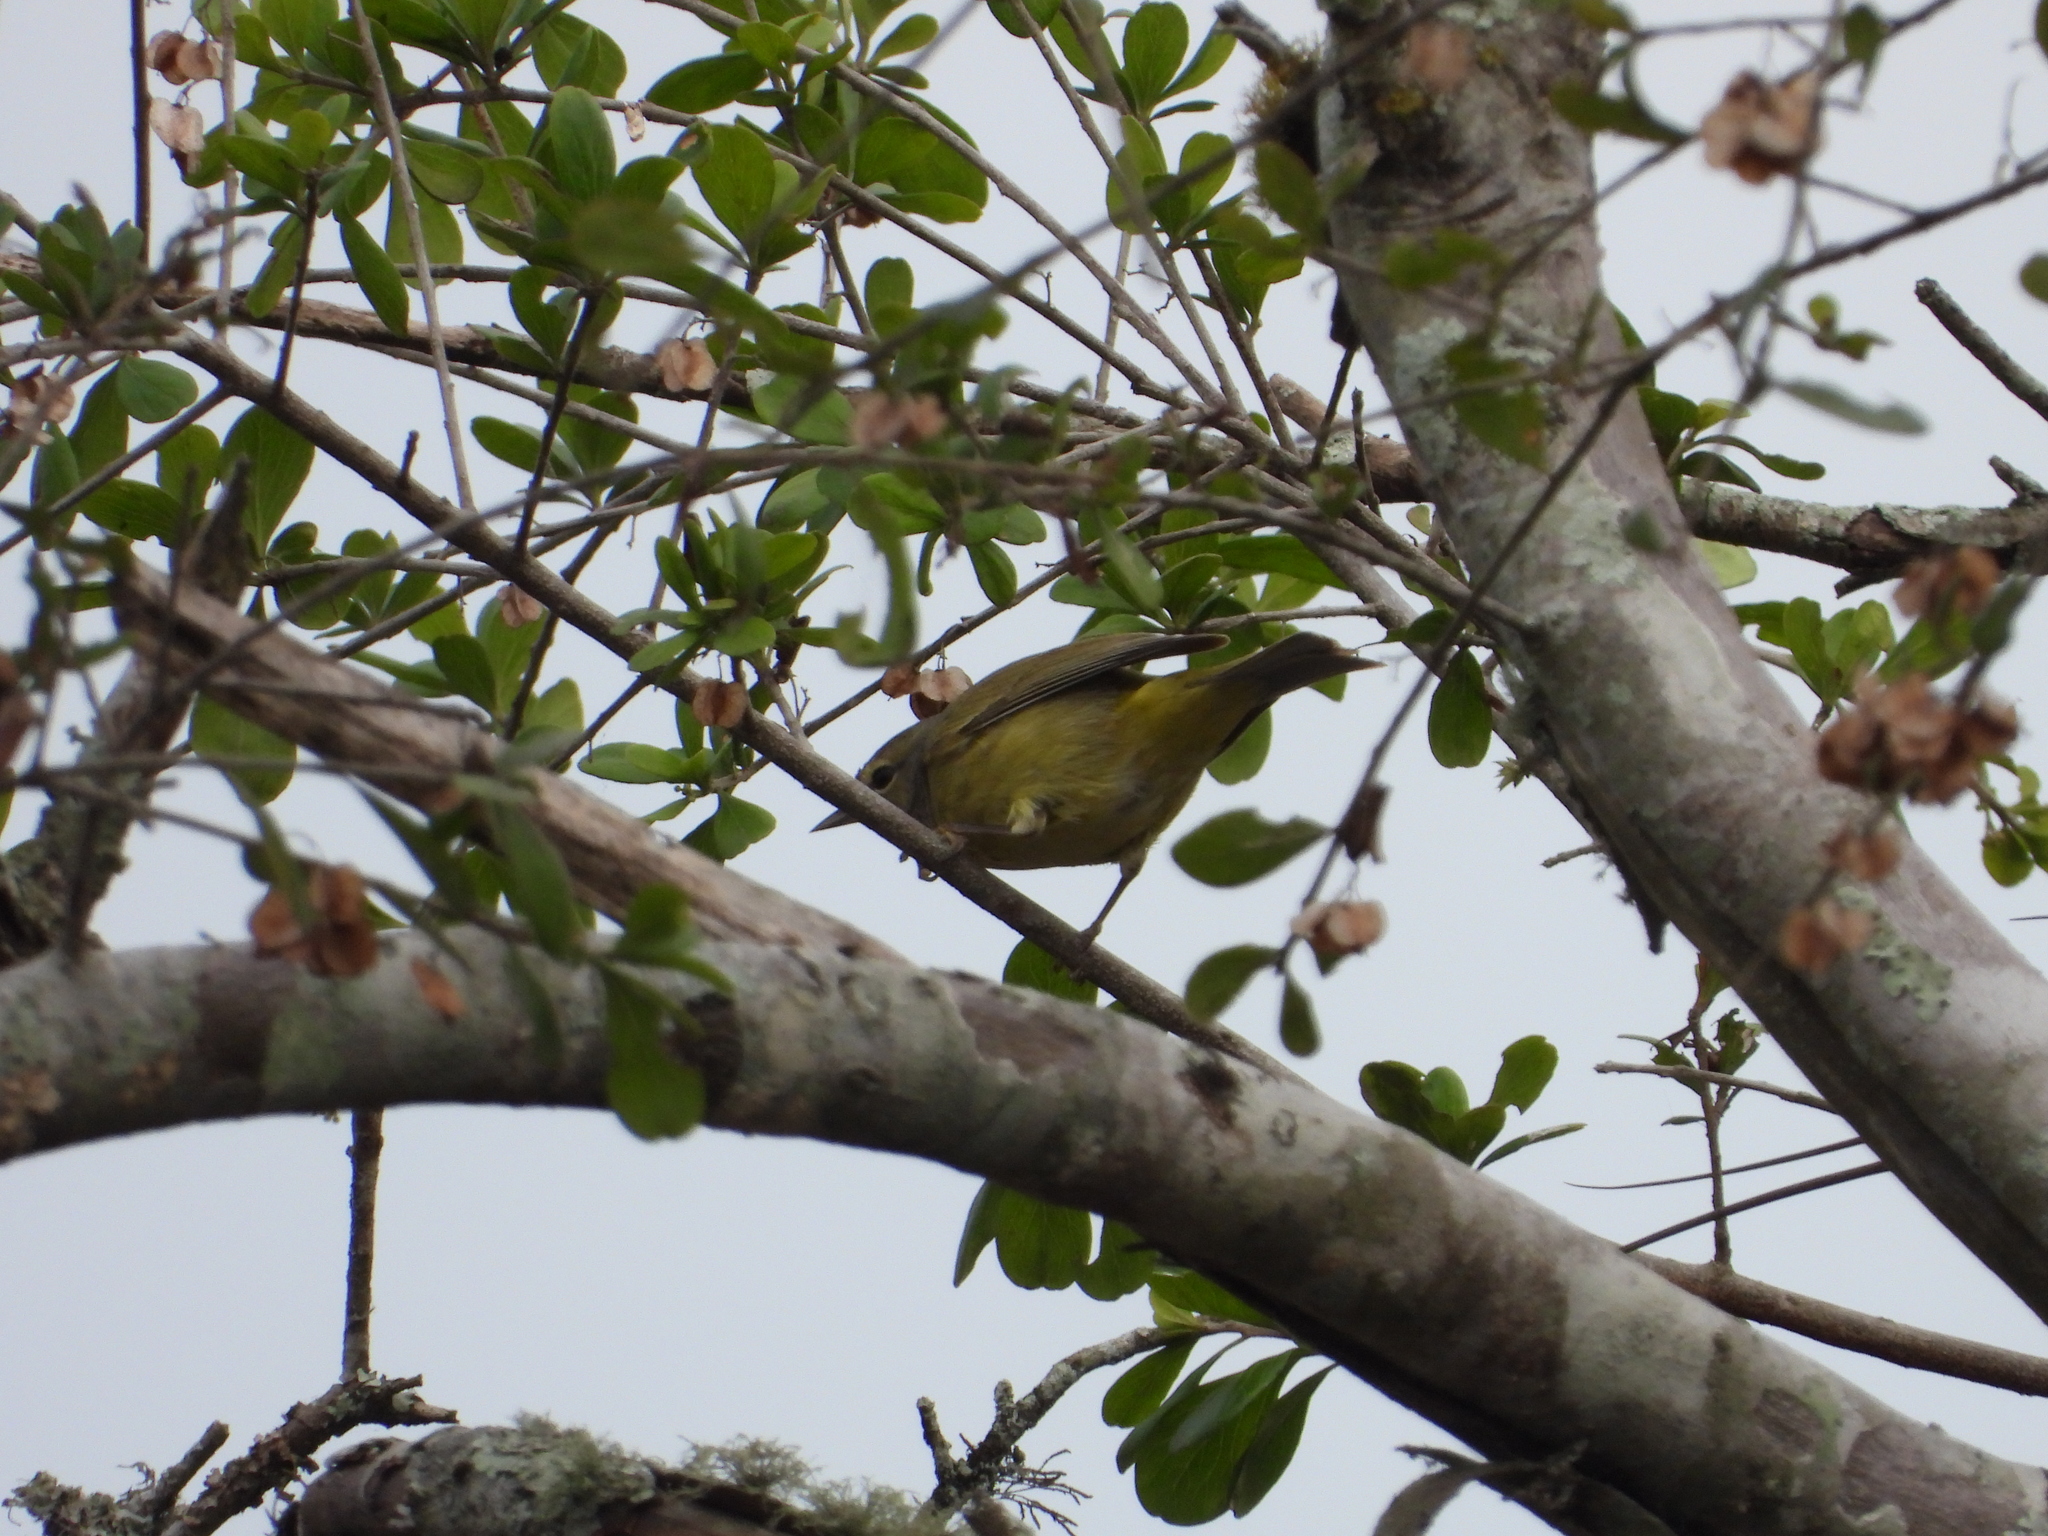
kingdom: Animalia
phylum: Chordata
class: Aves
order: Passeriformes
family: Parulidae
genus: Leiothlypis
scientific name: Leiothlypis celata
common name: Orange-crowned warbler
